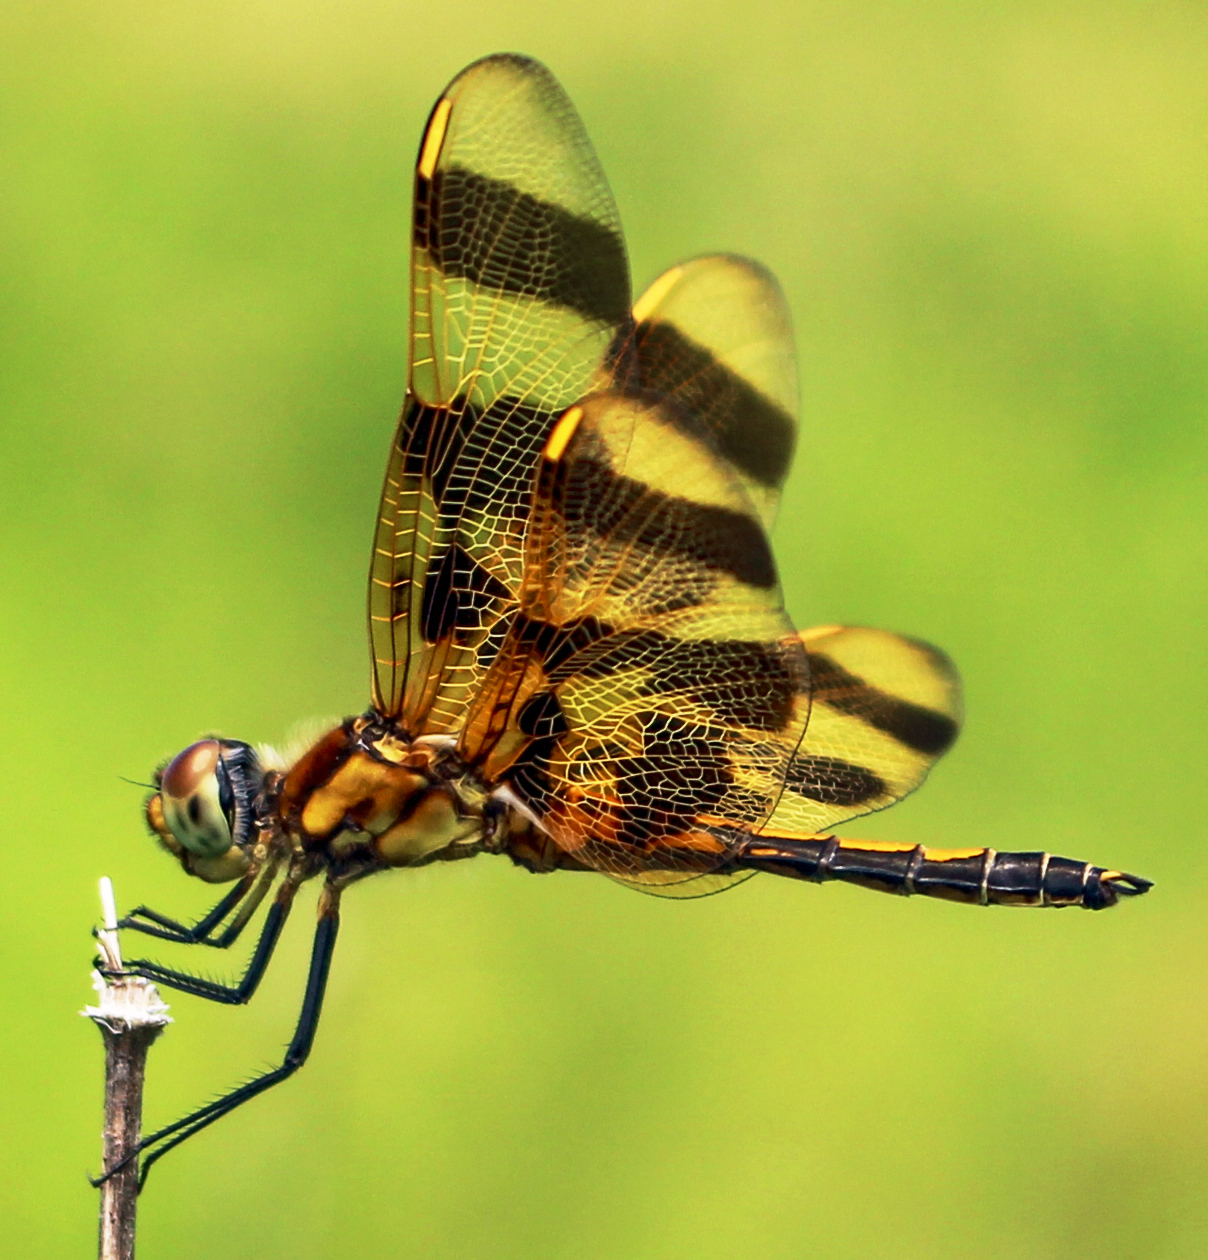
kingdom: Animalia
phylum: Arthropoda
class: Insecta
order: Odonata
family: Libellulidae
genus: Celithemis
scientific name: Celithemis eponina
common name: Halloween pennant
